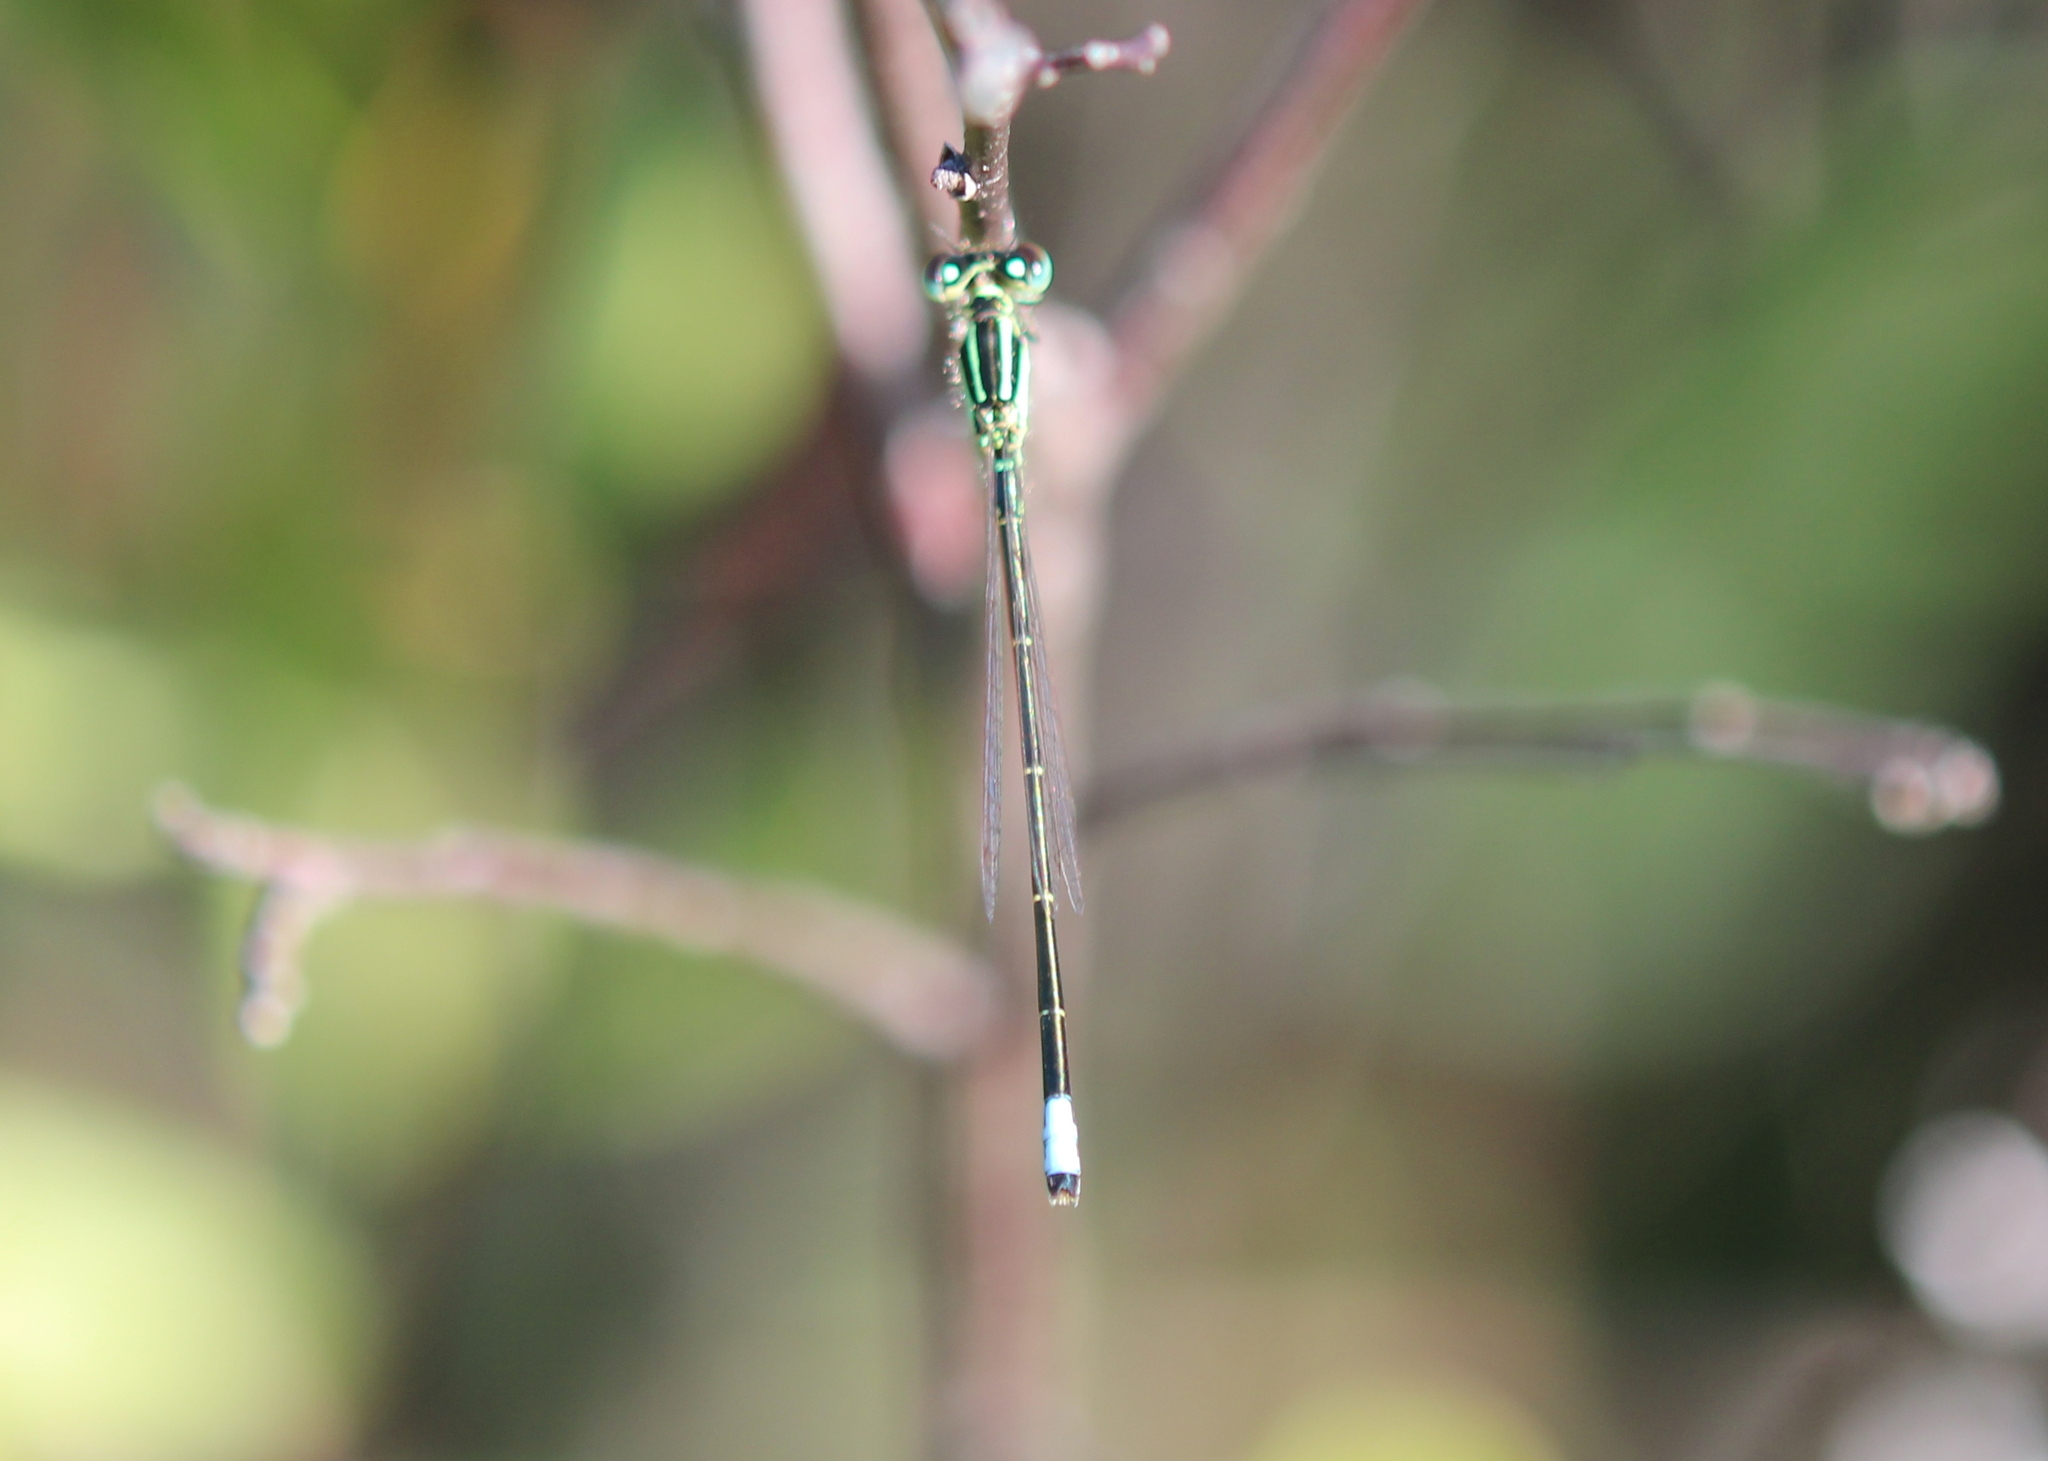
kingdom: Animalia
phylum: Arthropoda
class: Insecta
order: Odonata
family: Coenagrionidae
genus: Ischnura
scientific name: Ischnura verticalis
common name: Eastern forktail
